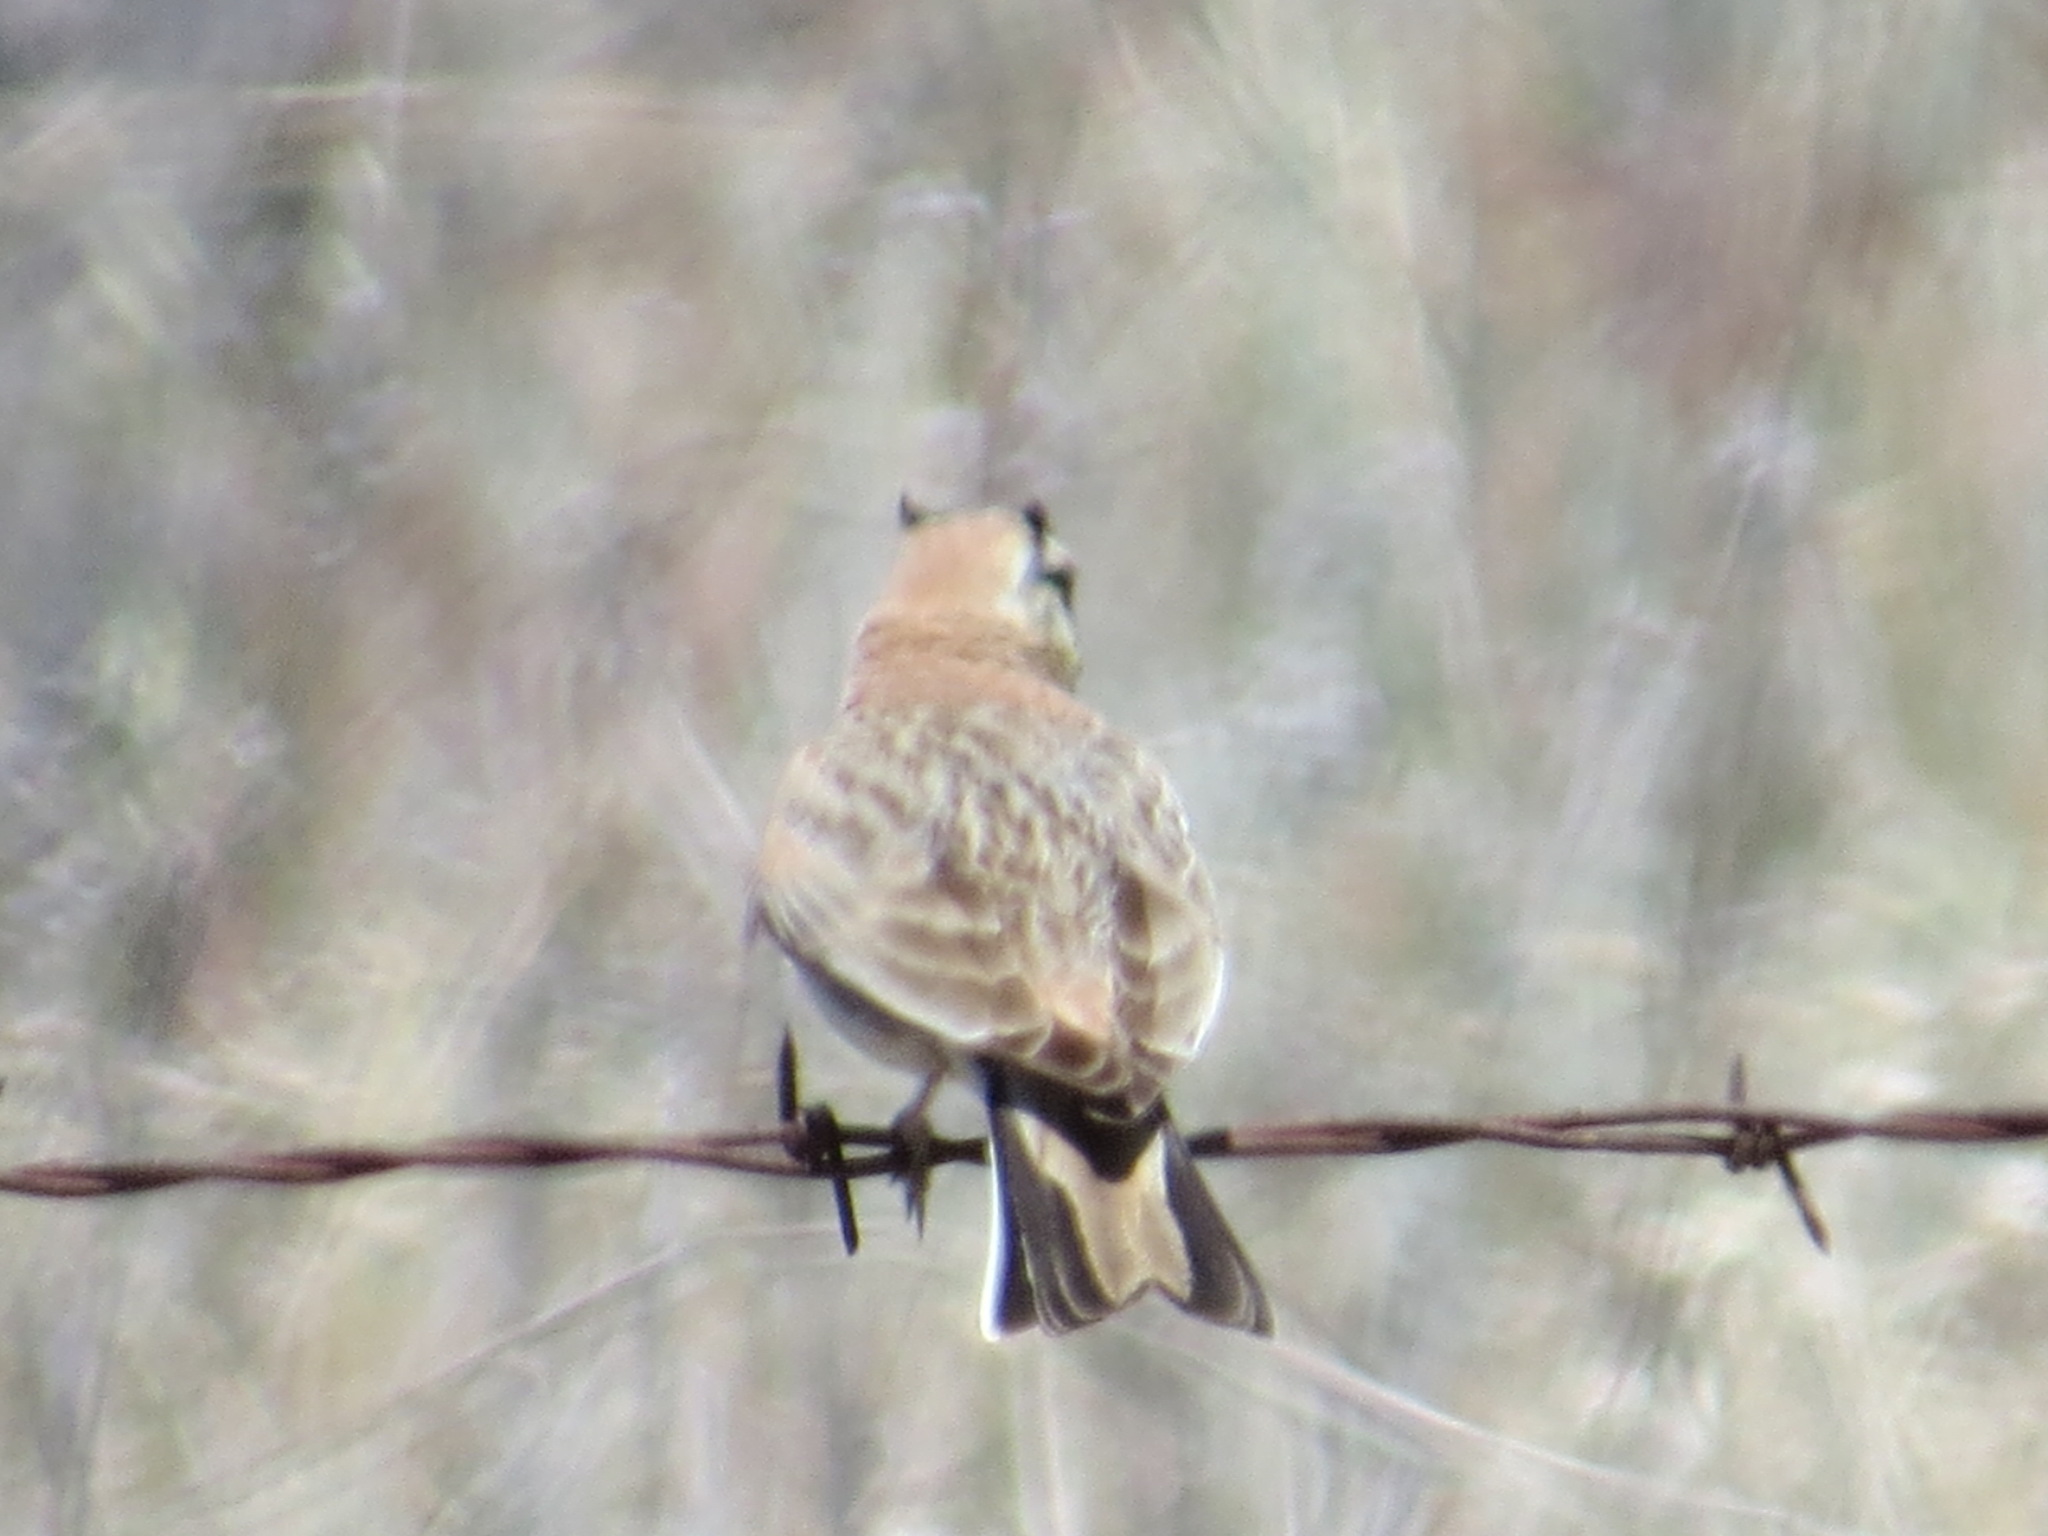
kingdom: Animalia
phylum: Chordata
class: Aves
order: Passeriformes
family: Alaudidae
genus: Eremophila
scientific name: Eremophila alpestris
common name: Horned lark
